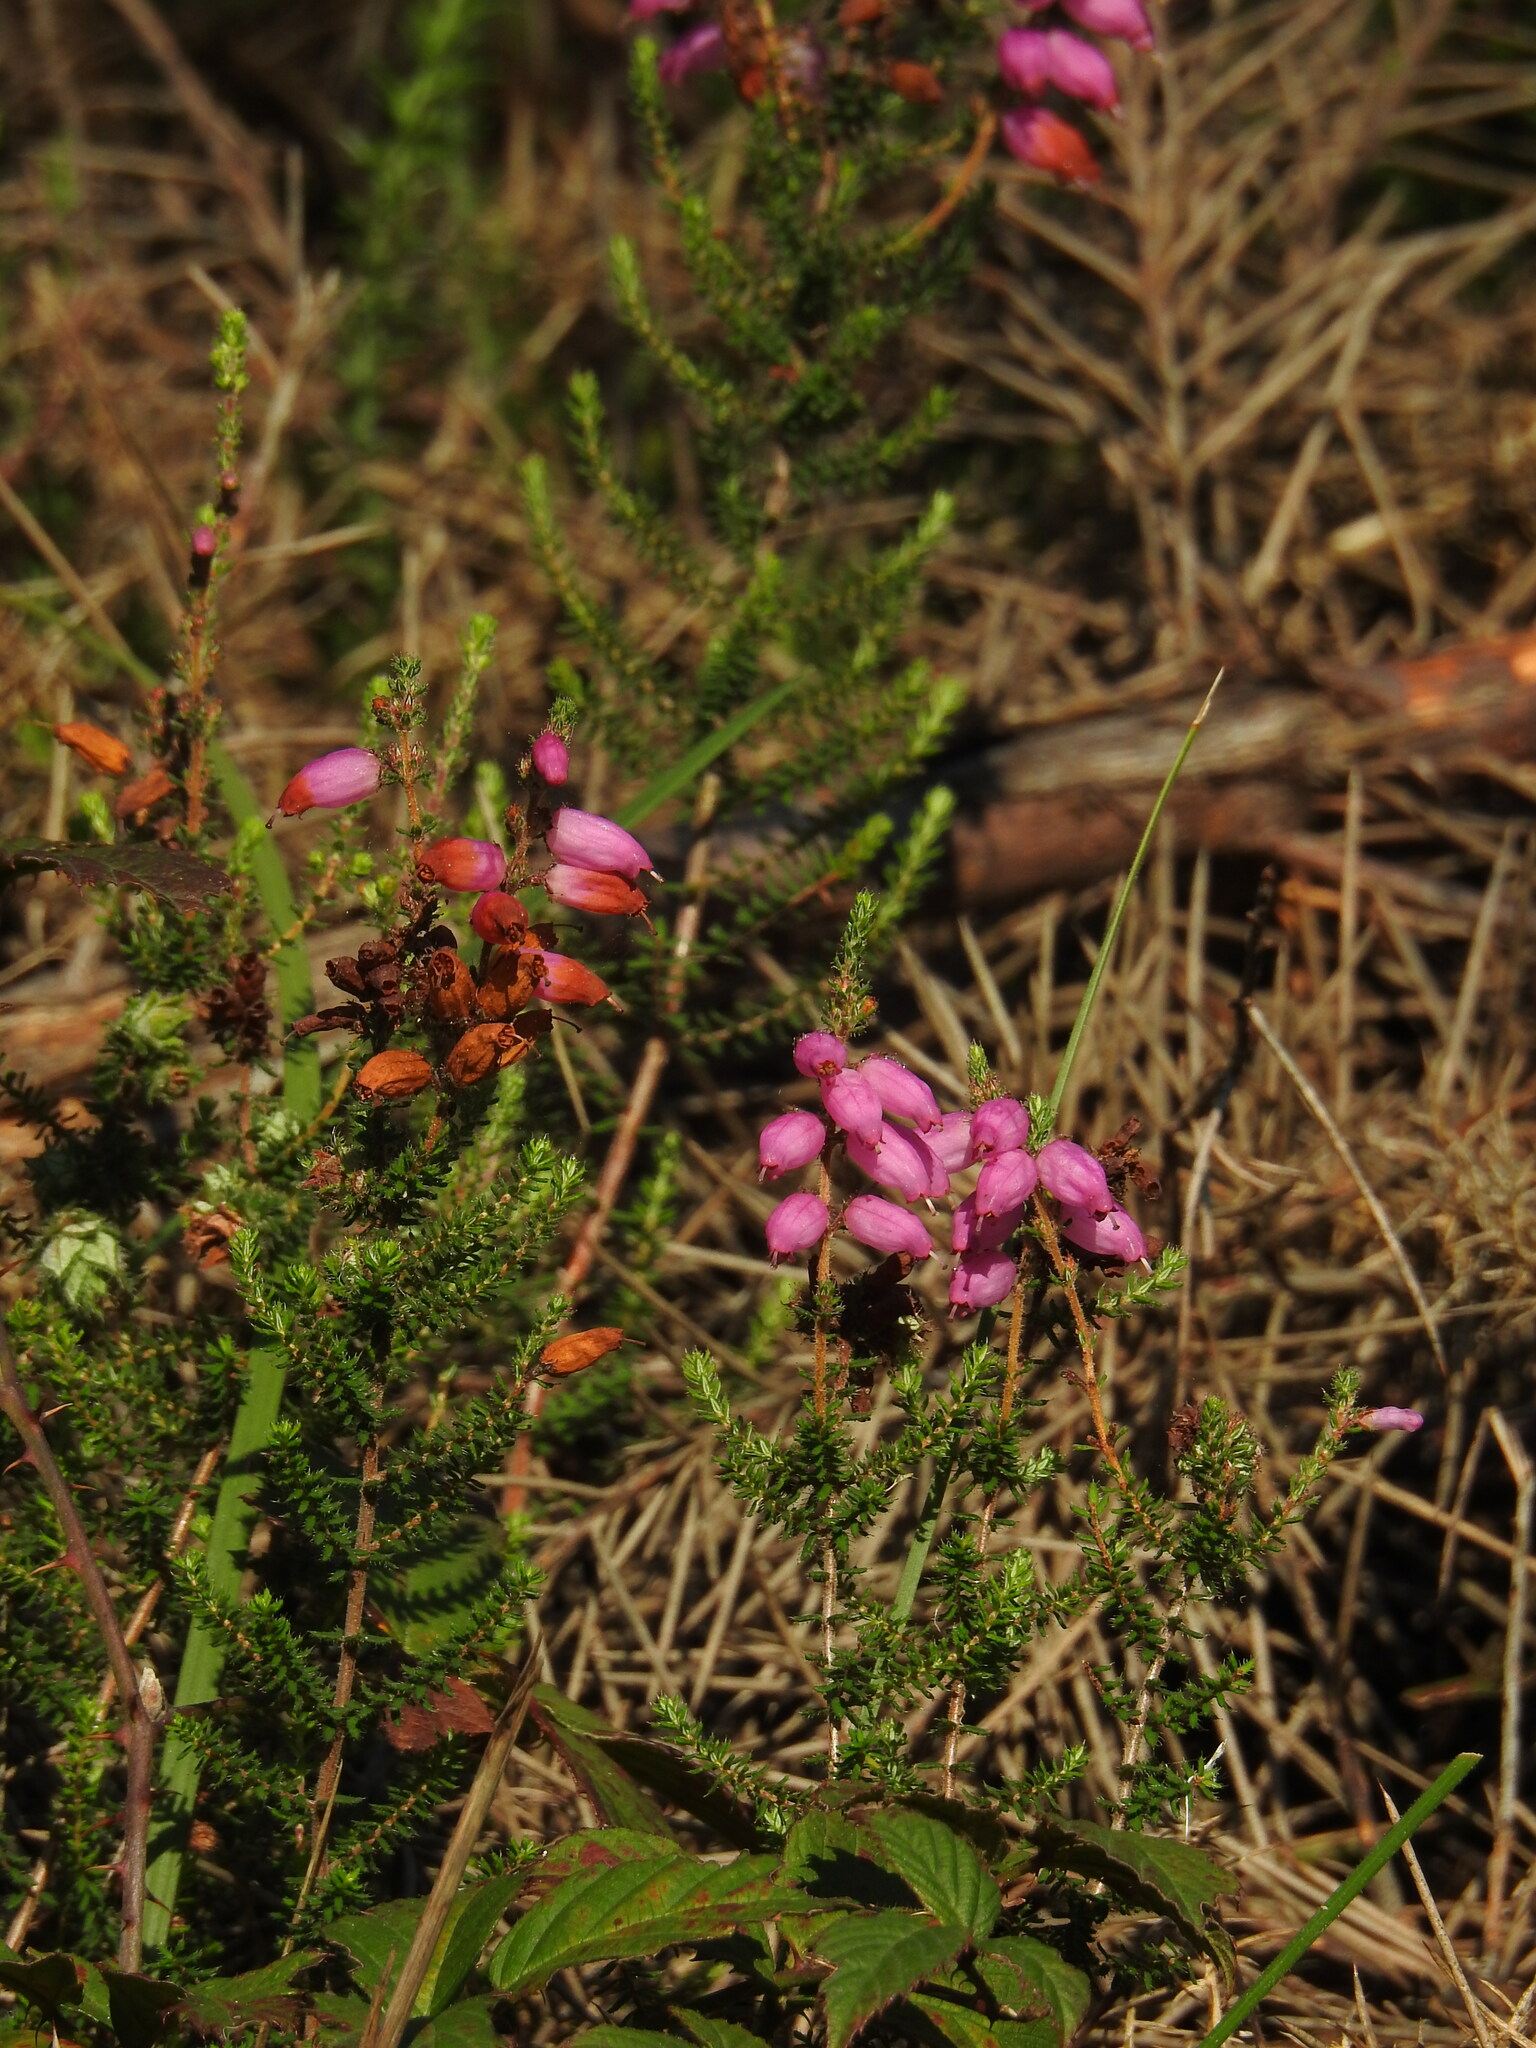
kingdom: Plantae
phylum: Tracheophyta
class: Magnoliopsida
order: Ericales
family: Ericaceae
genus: Erica
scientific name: Erica ciliaris
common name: Dorset heath
